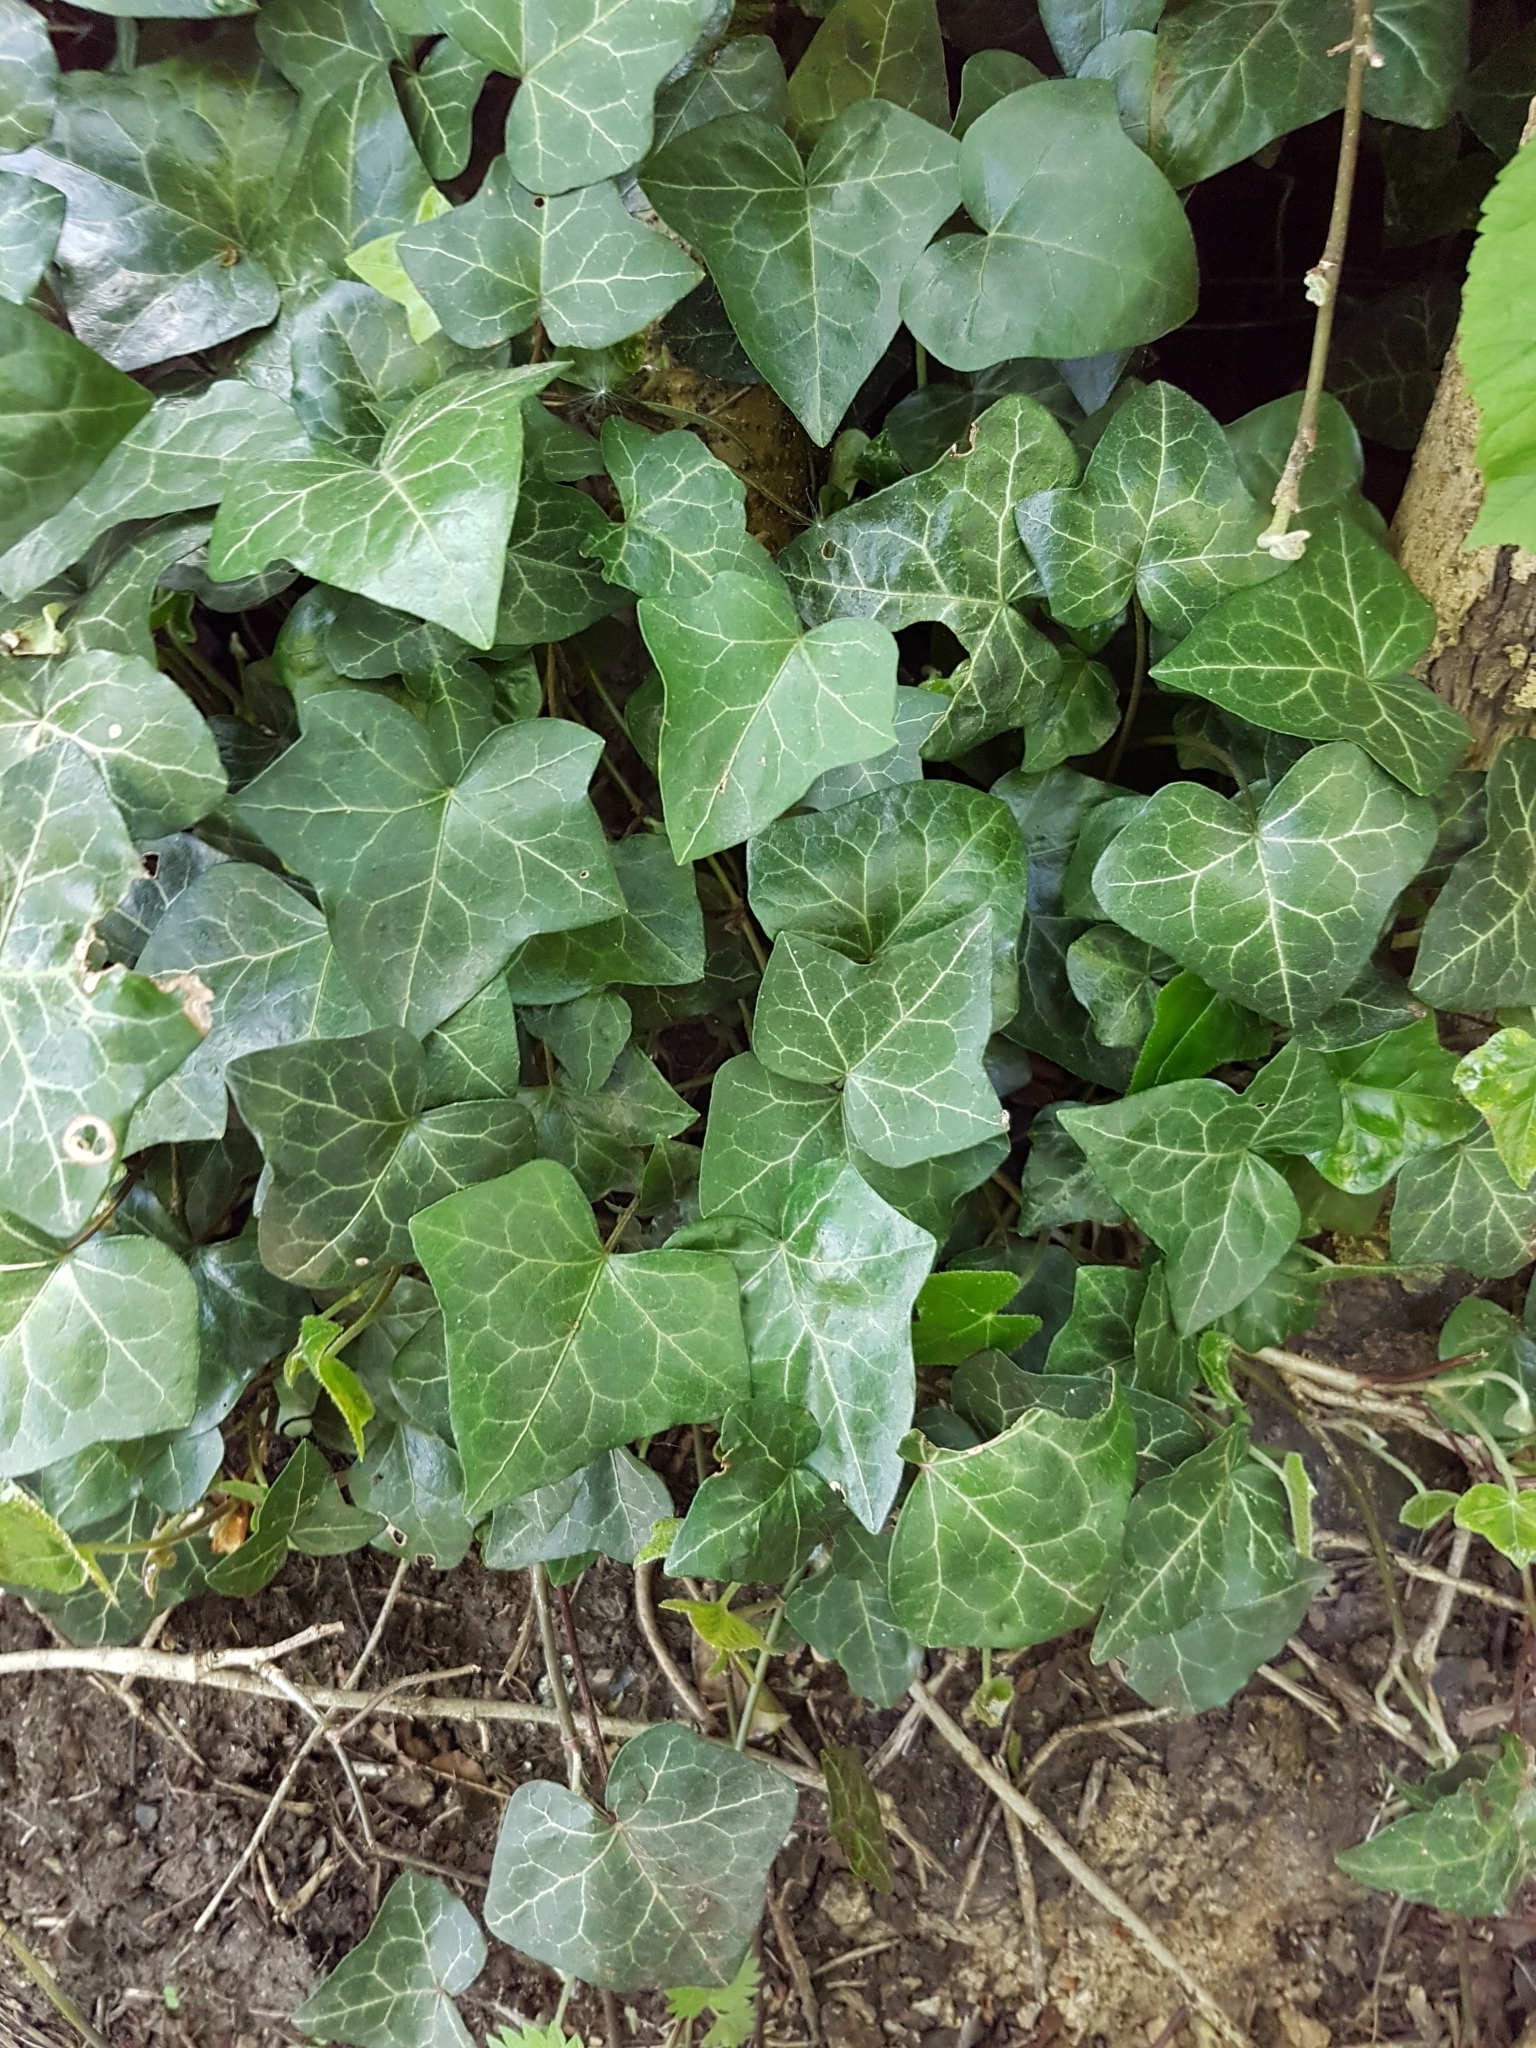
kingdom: Plantae
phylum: Tracheophyta
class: Magnoliopsida
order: Apiales
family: Araliaceae
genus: Hedera
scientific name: Hedera helix
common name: Ivy
